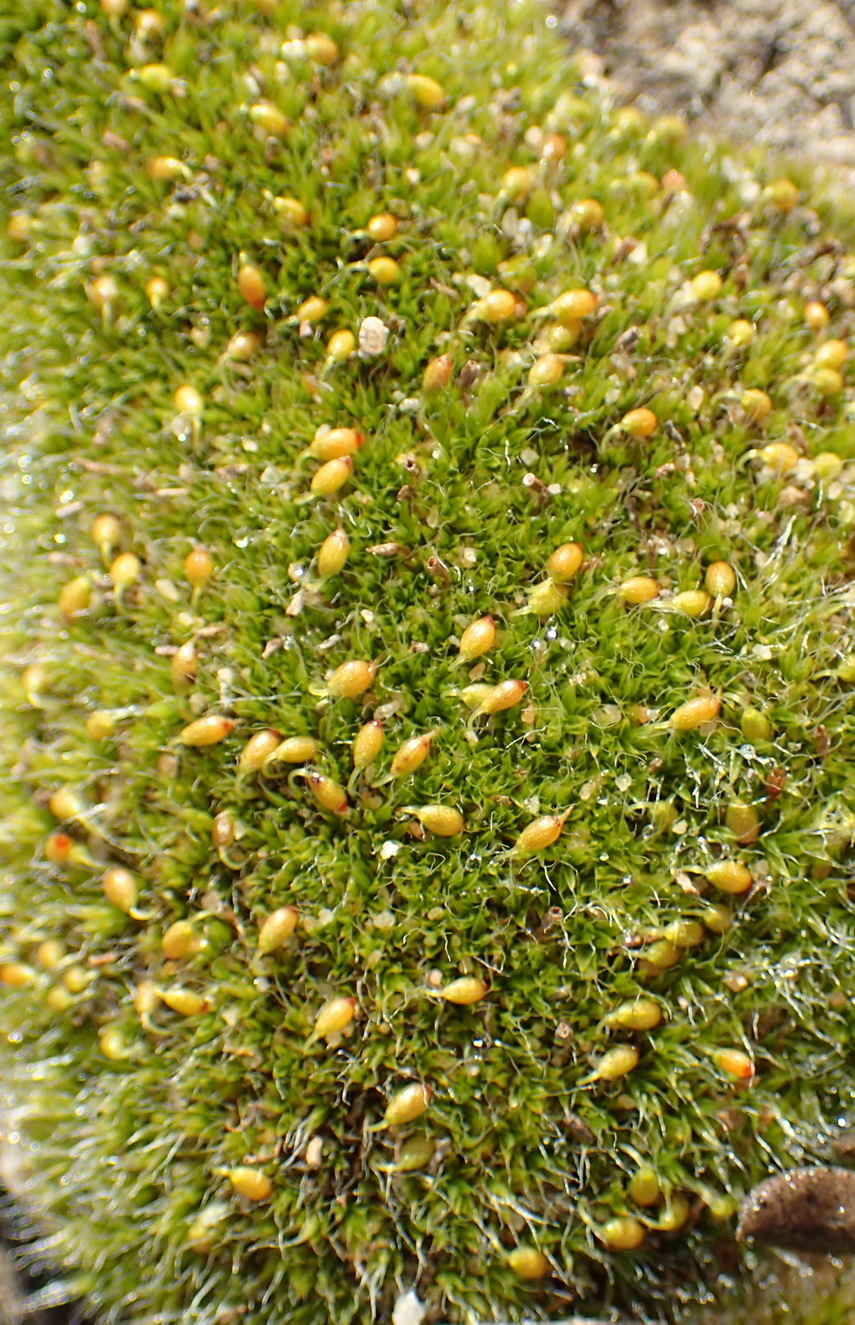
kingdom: Plantae
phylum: Bryophyta
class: Bryopsida
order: Grimmiales
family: Grimmiaceae
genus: Grimmia
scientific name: Grimmia pulvinata
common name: Grey-cushioned grimmia
